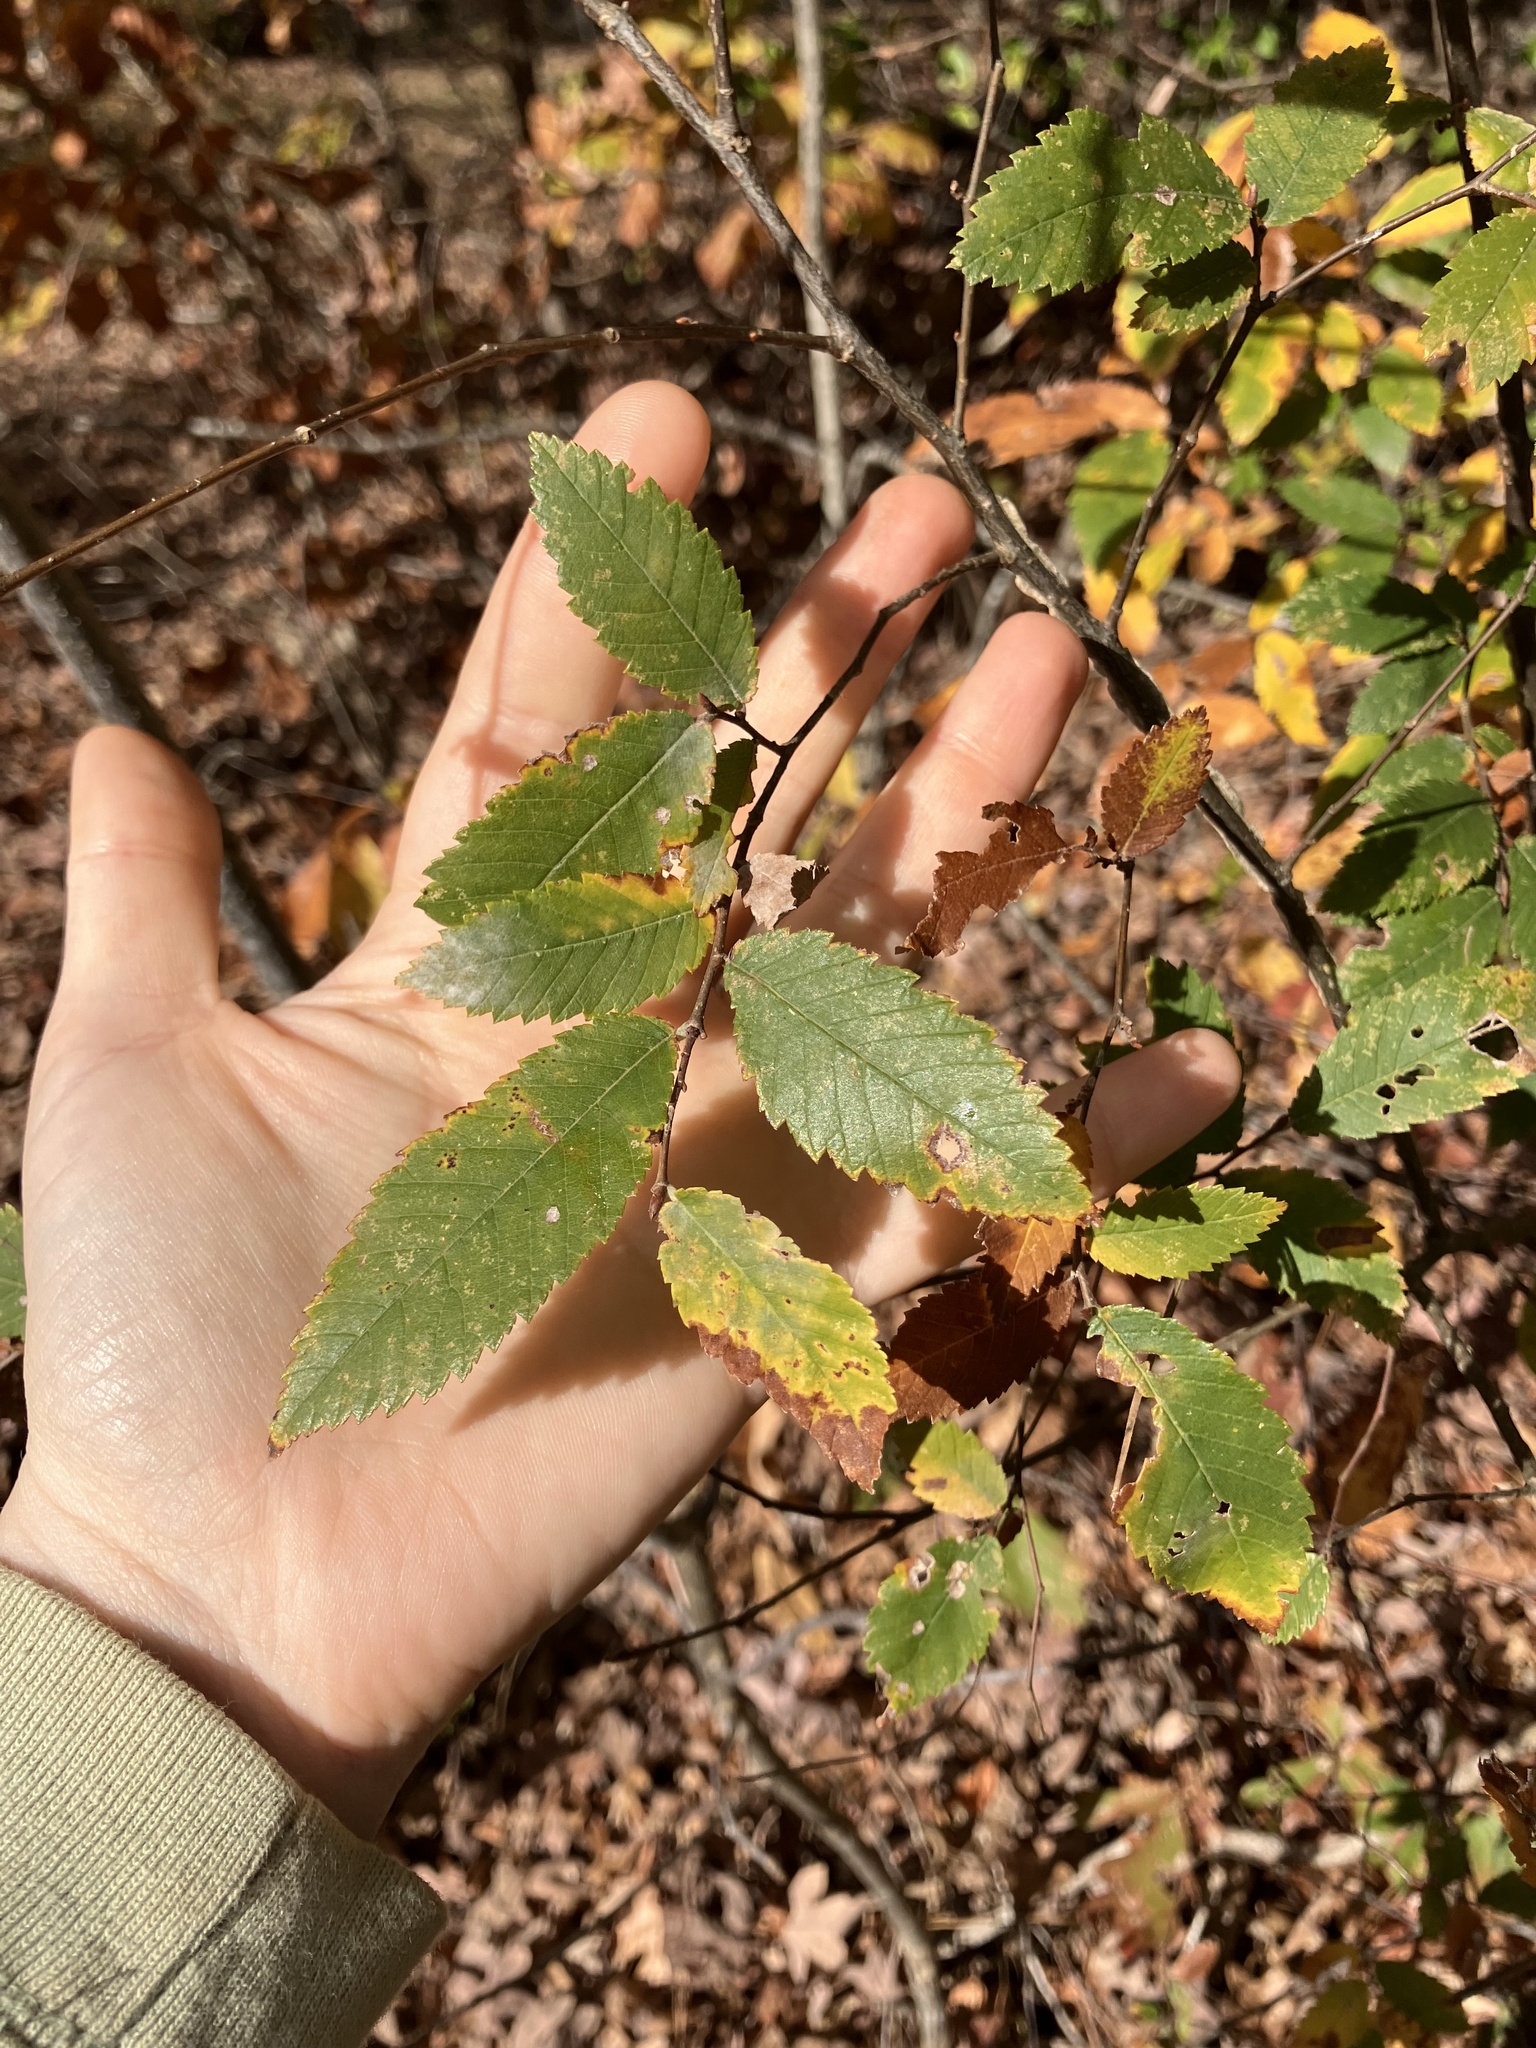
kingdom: Plantae
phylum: Tracheophyta
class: Magnoliopsida
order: Rosales
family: Ulmaceae
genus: Ulmus
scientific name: Ulmus alata
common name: Winged elm
